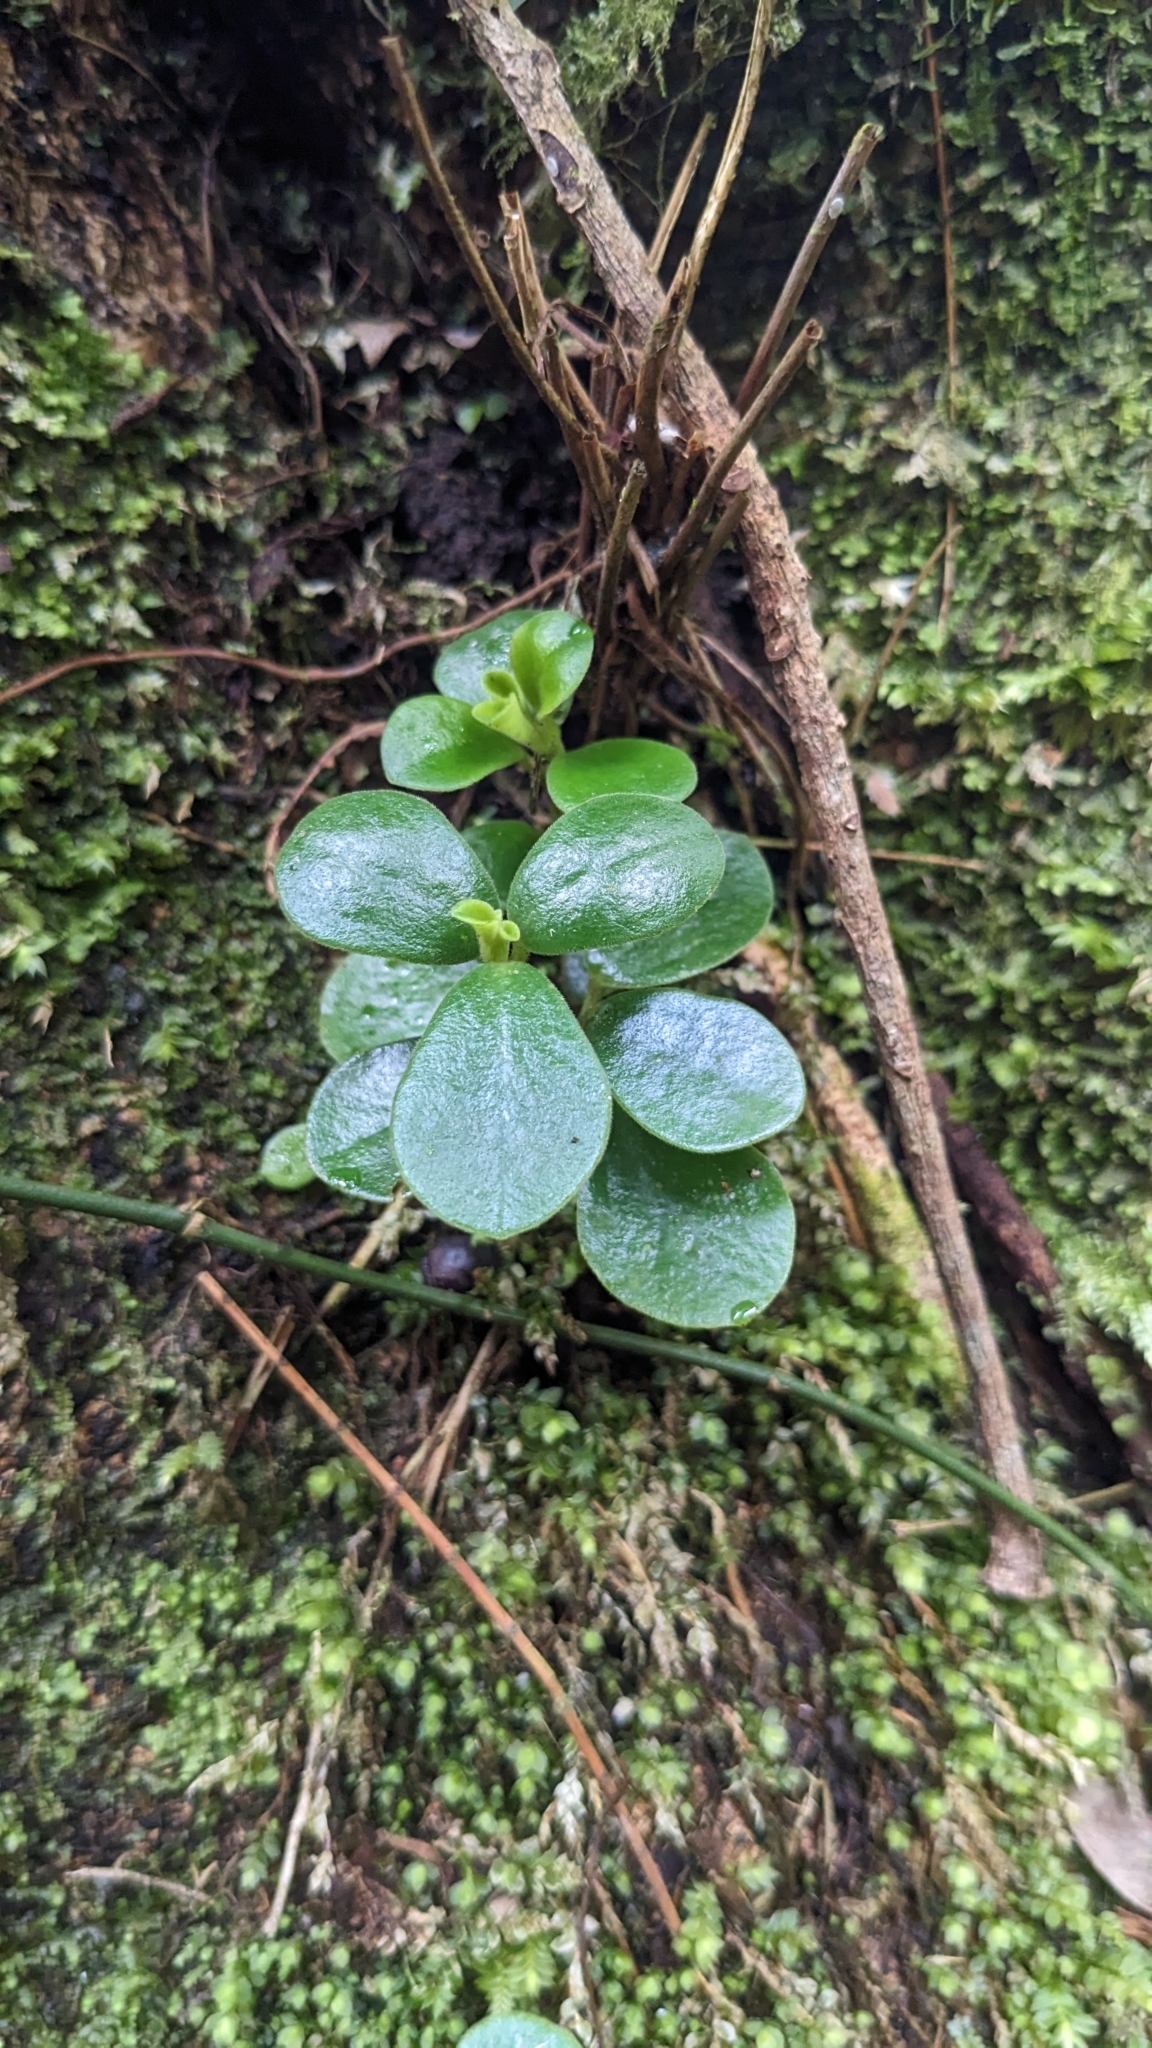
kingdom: Plantae
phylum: Tracheophyta
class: Magnoliopsida
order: Piperales
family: Piperaceae
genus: Peperomia
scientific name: Peperomia japonica
